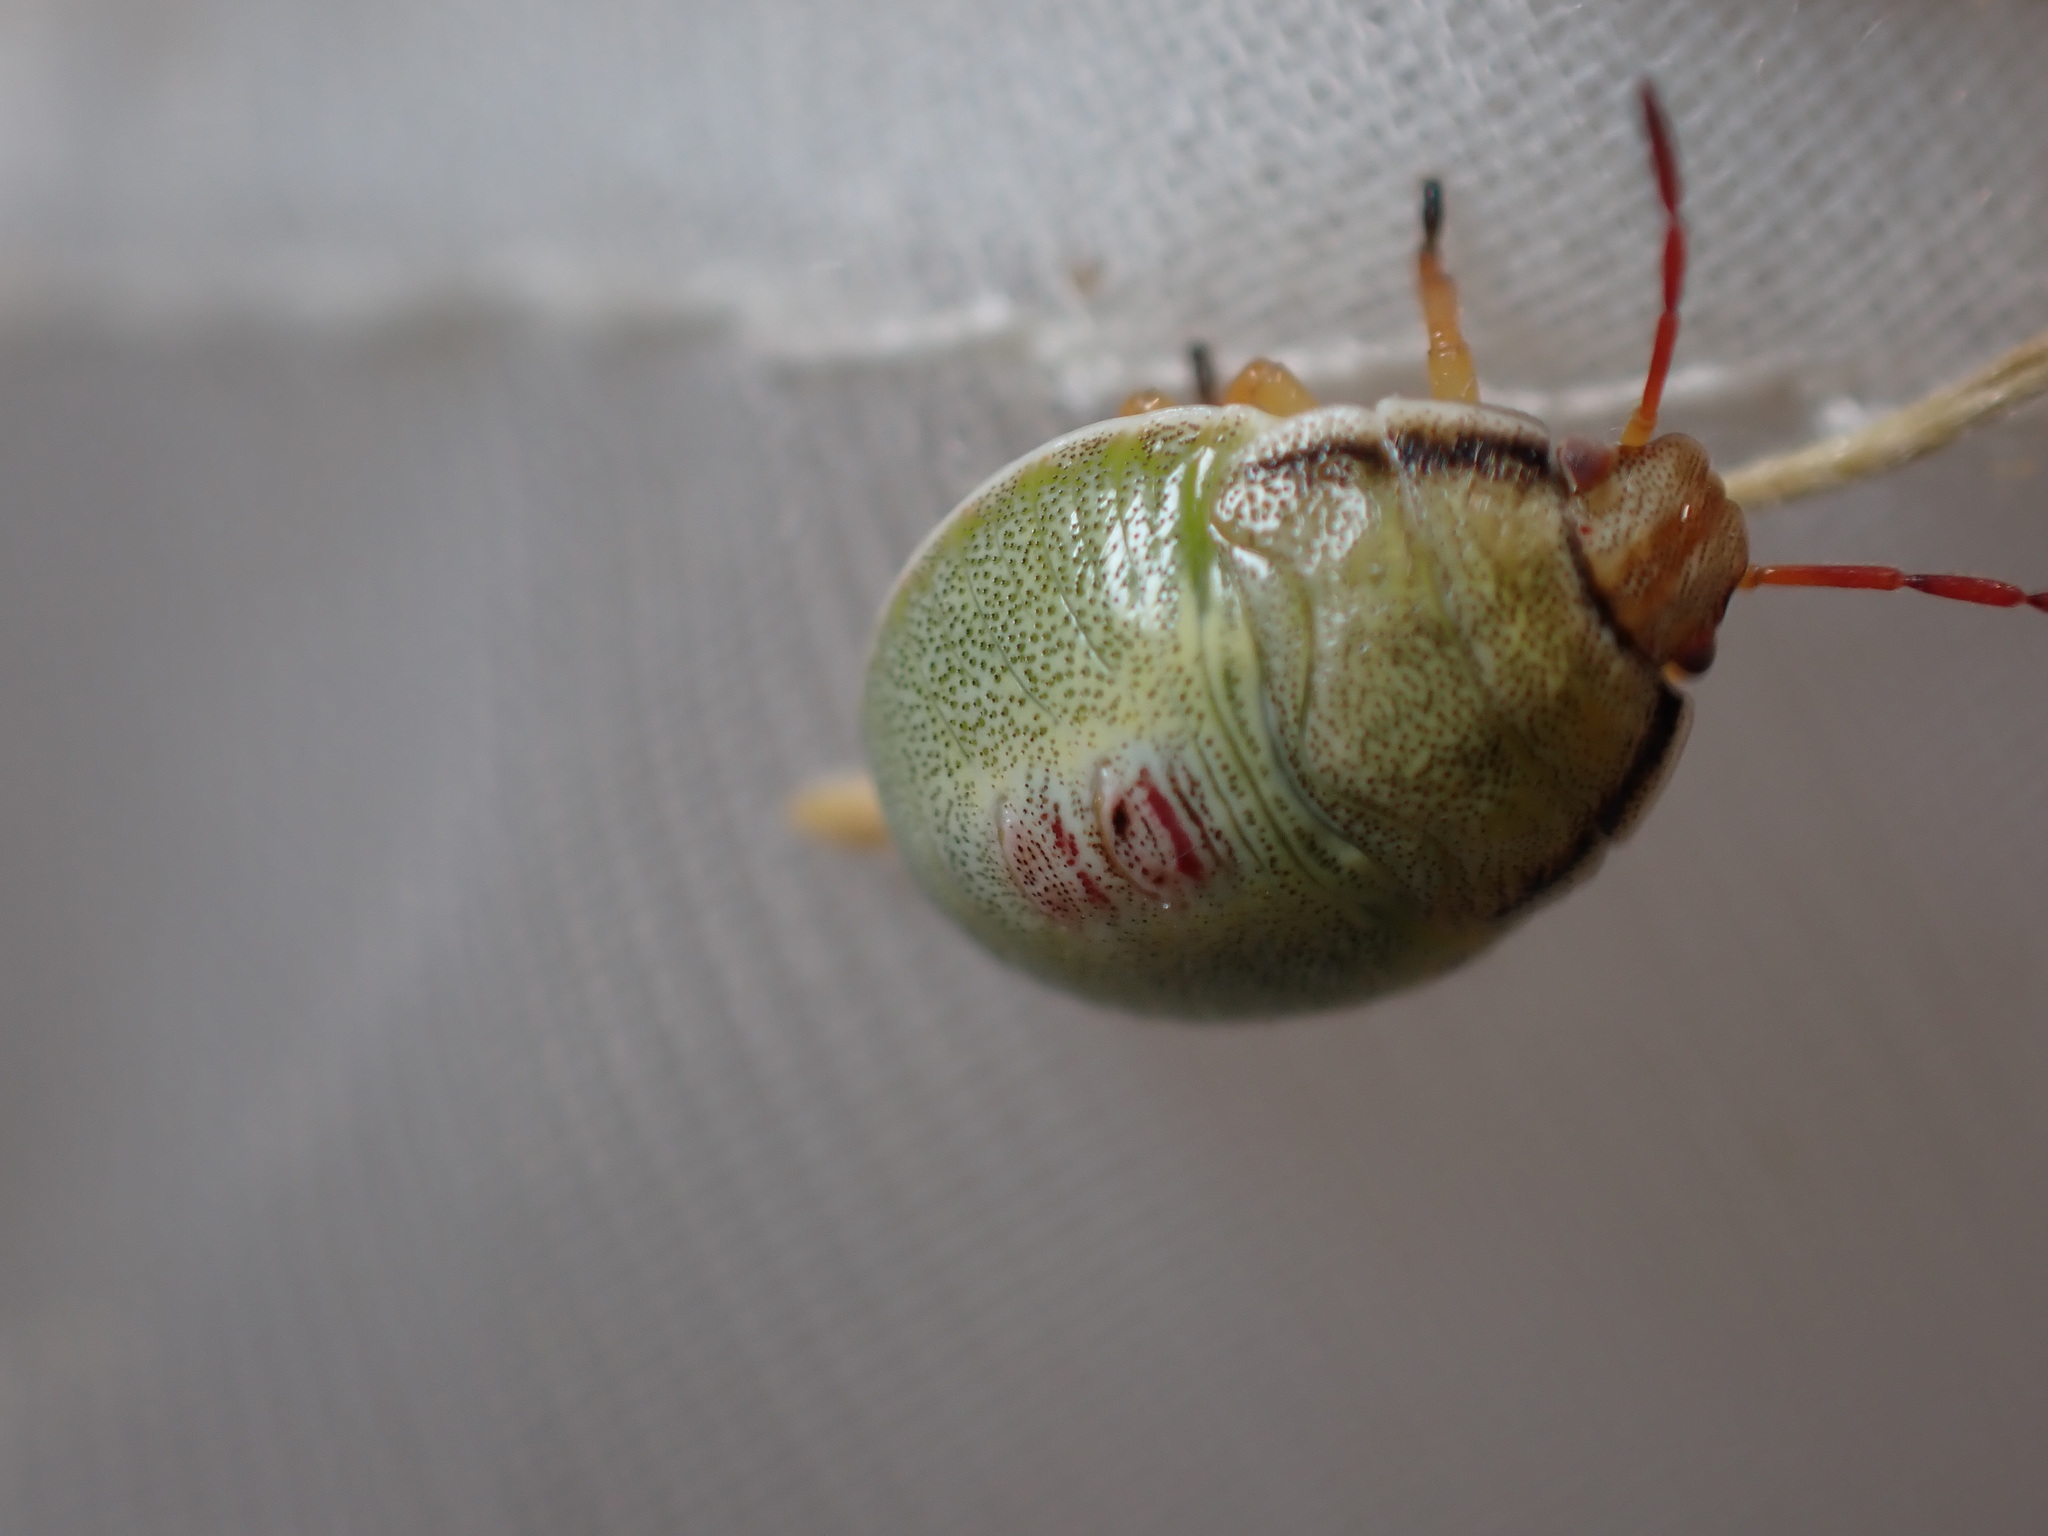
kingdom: Animalia
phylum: Arthropoda
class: Insecta
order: Hemiptera
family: Pentatomidae
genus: Piezodorus
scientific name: Piezodorus lituratus
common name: Stink bug
